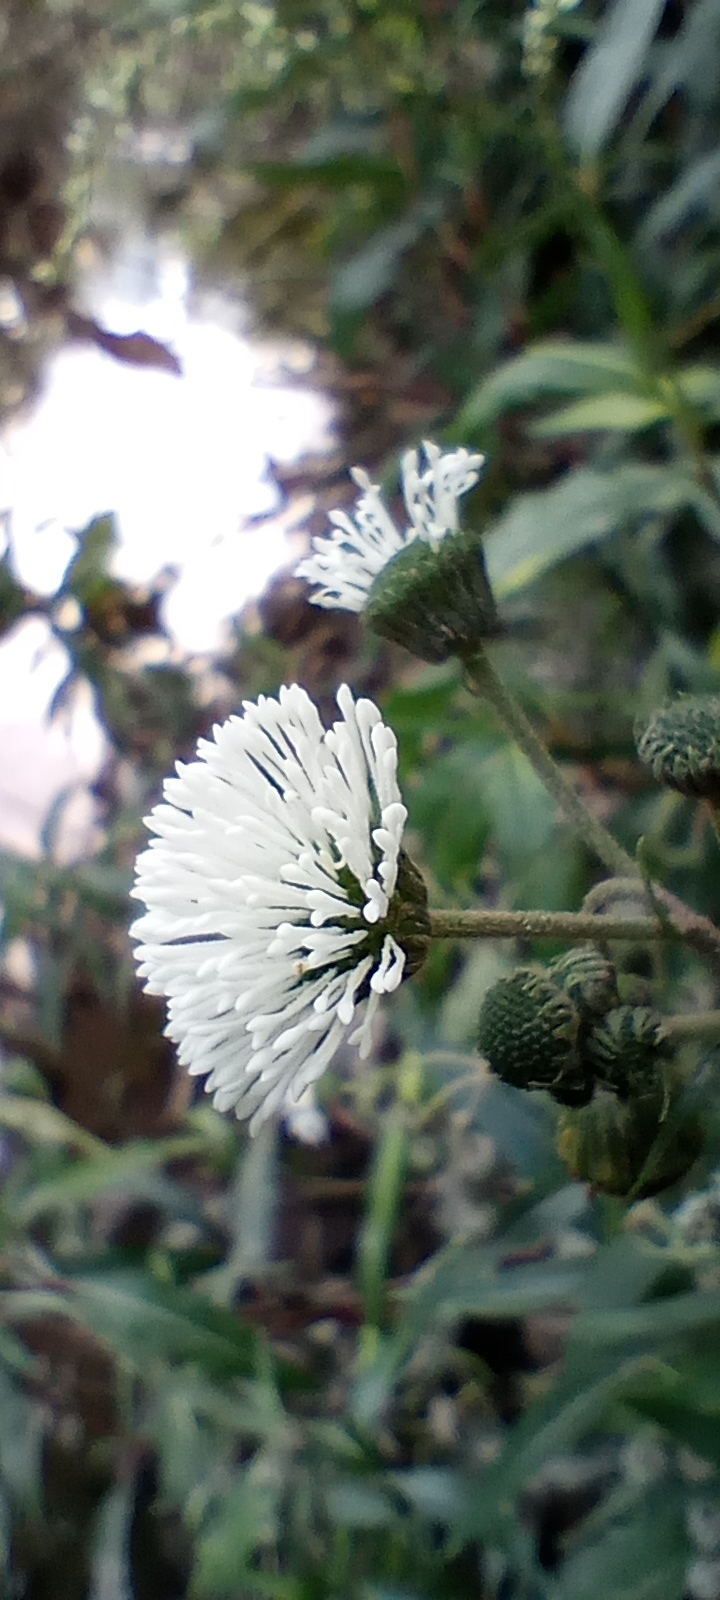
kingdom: Plantae
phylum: Tracheophyta
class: Magnoliopsida
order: Asterales
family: Asteraceae
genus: Gymnocoronis
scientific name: Gymnocoronis spilanthoides
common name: Senegal teaplant
